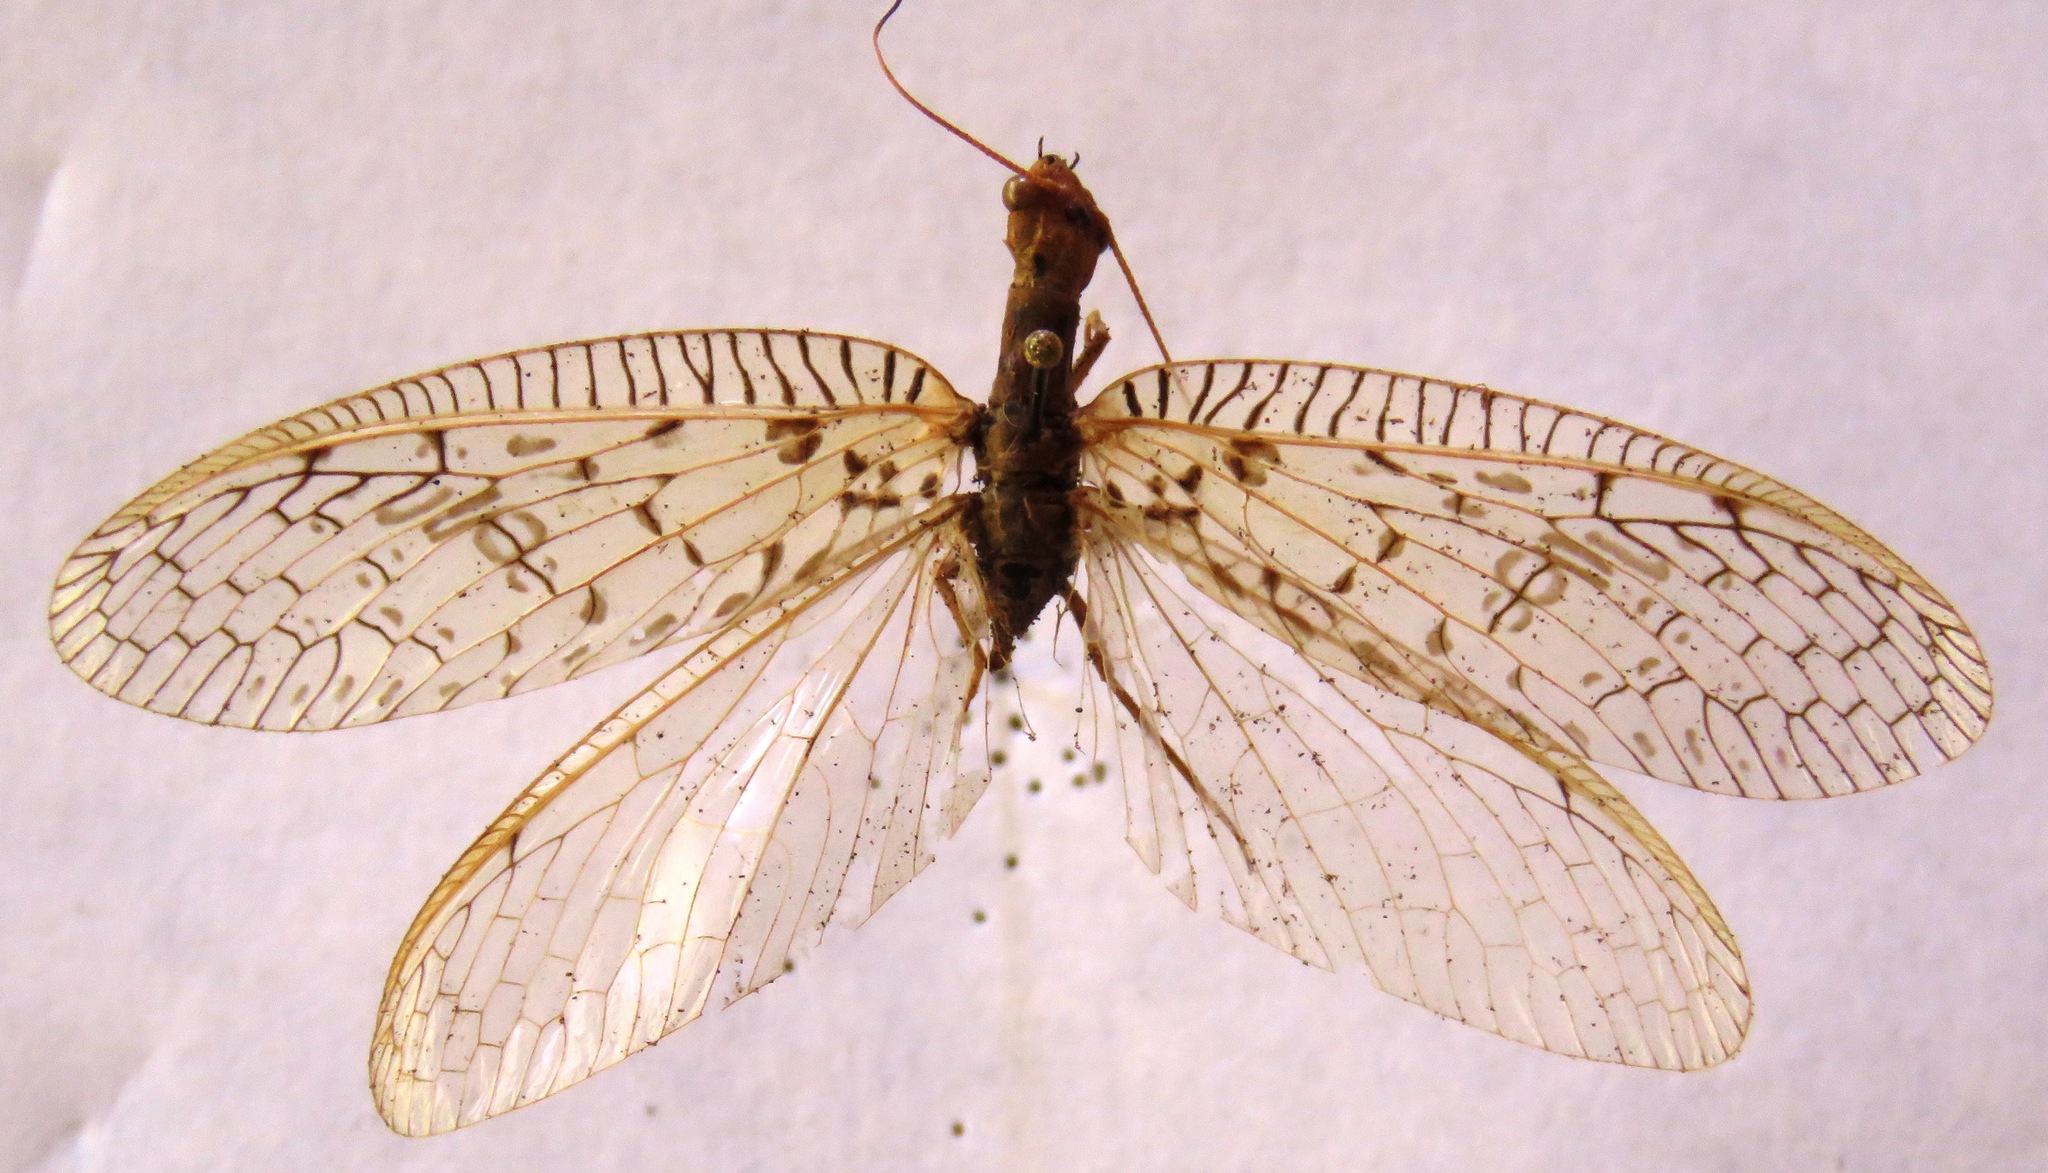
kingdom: Animalia
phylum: Arthropoda
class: Insecta
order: Megaloptera
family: Corydalidae
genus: Chloronia
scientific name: Chloronia mirifica
